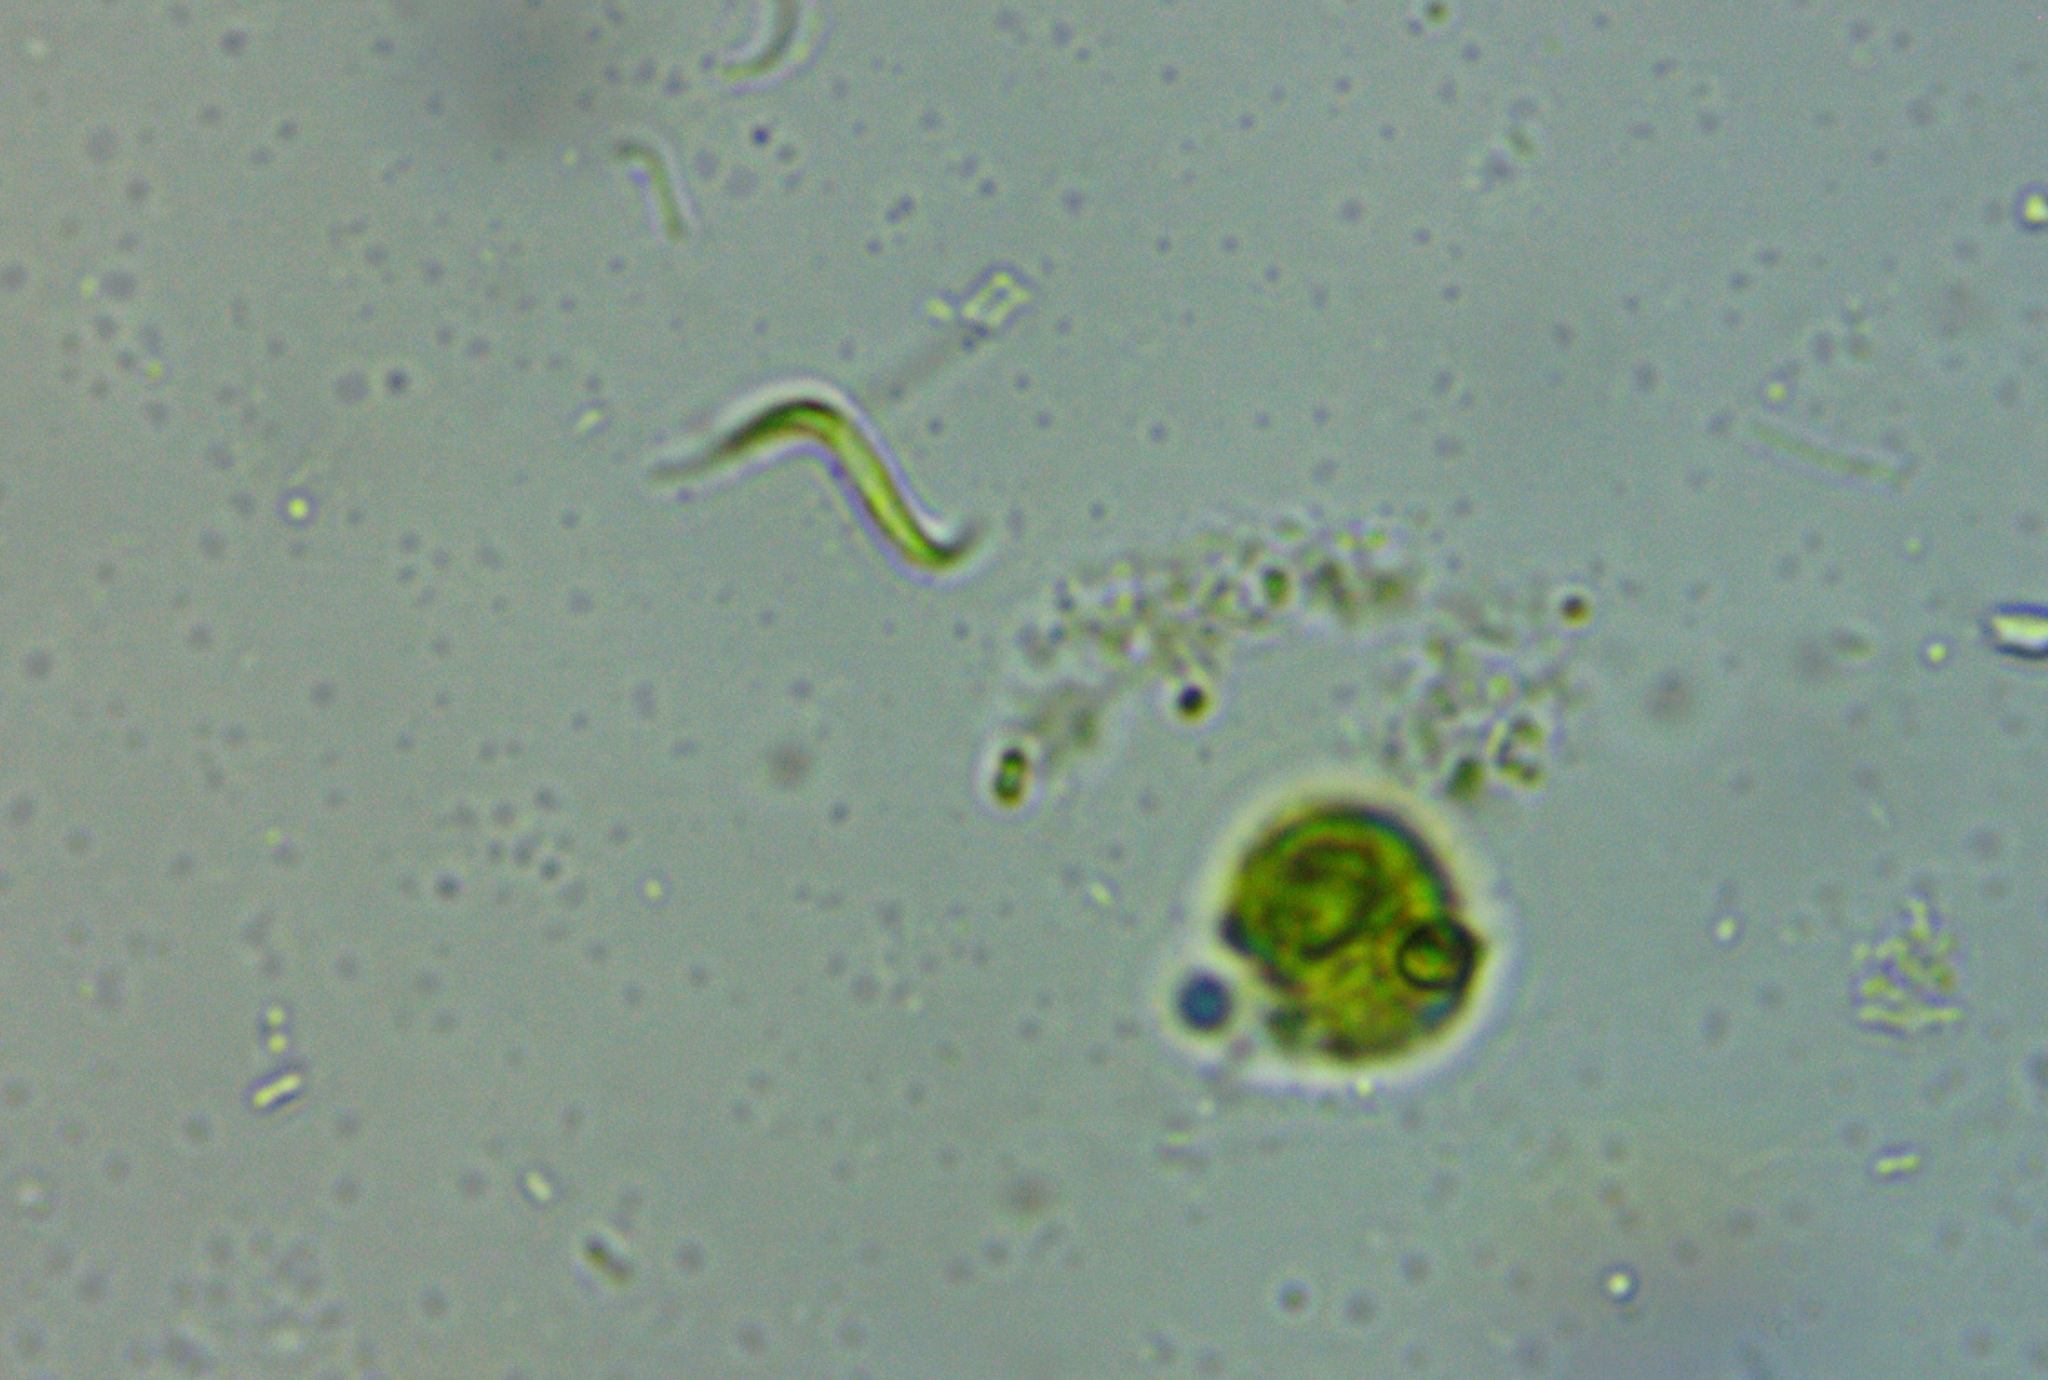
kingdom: Plantae
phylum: Chlorophyta
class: Chlorophyceae
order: Sphaeropleales
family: Selenastraceae
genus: Monoraphidium
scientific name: Monoraphidium contortum
